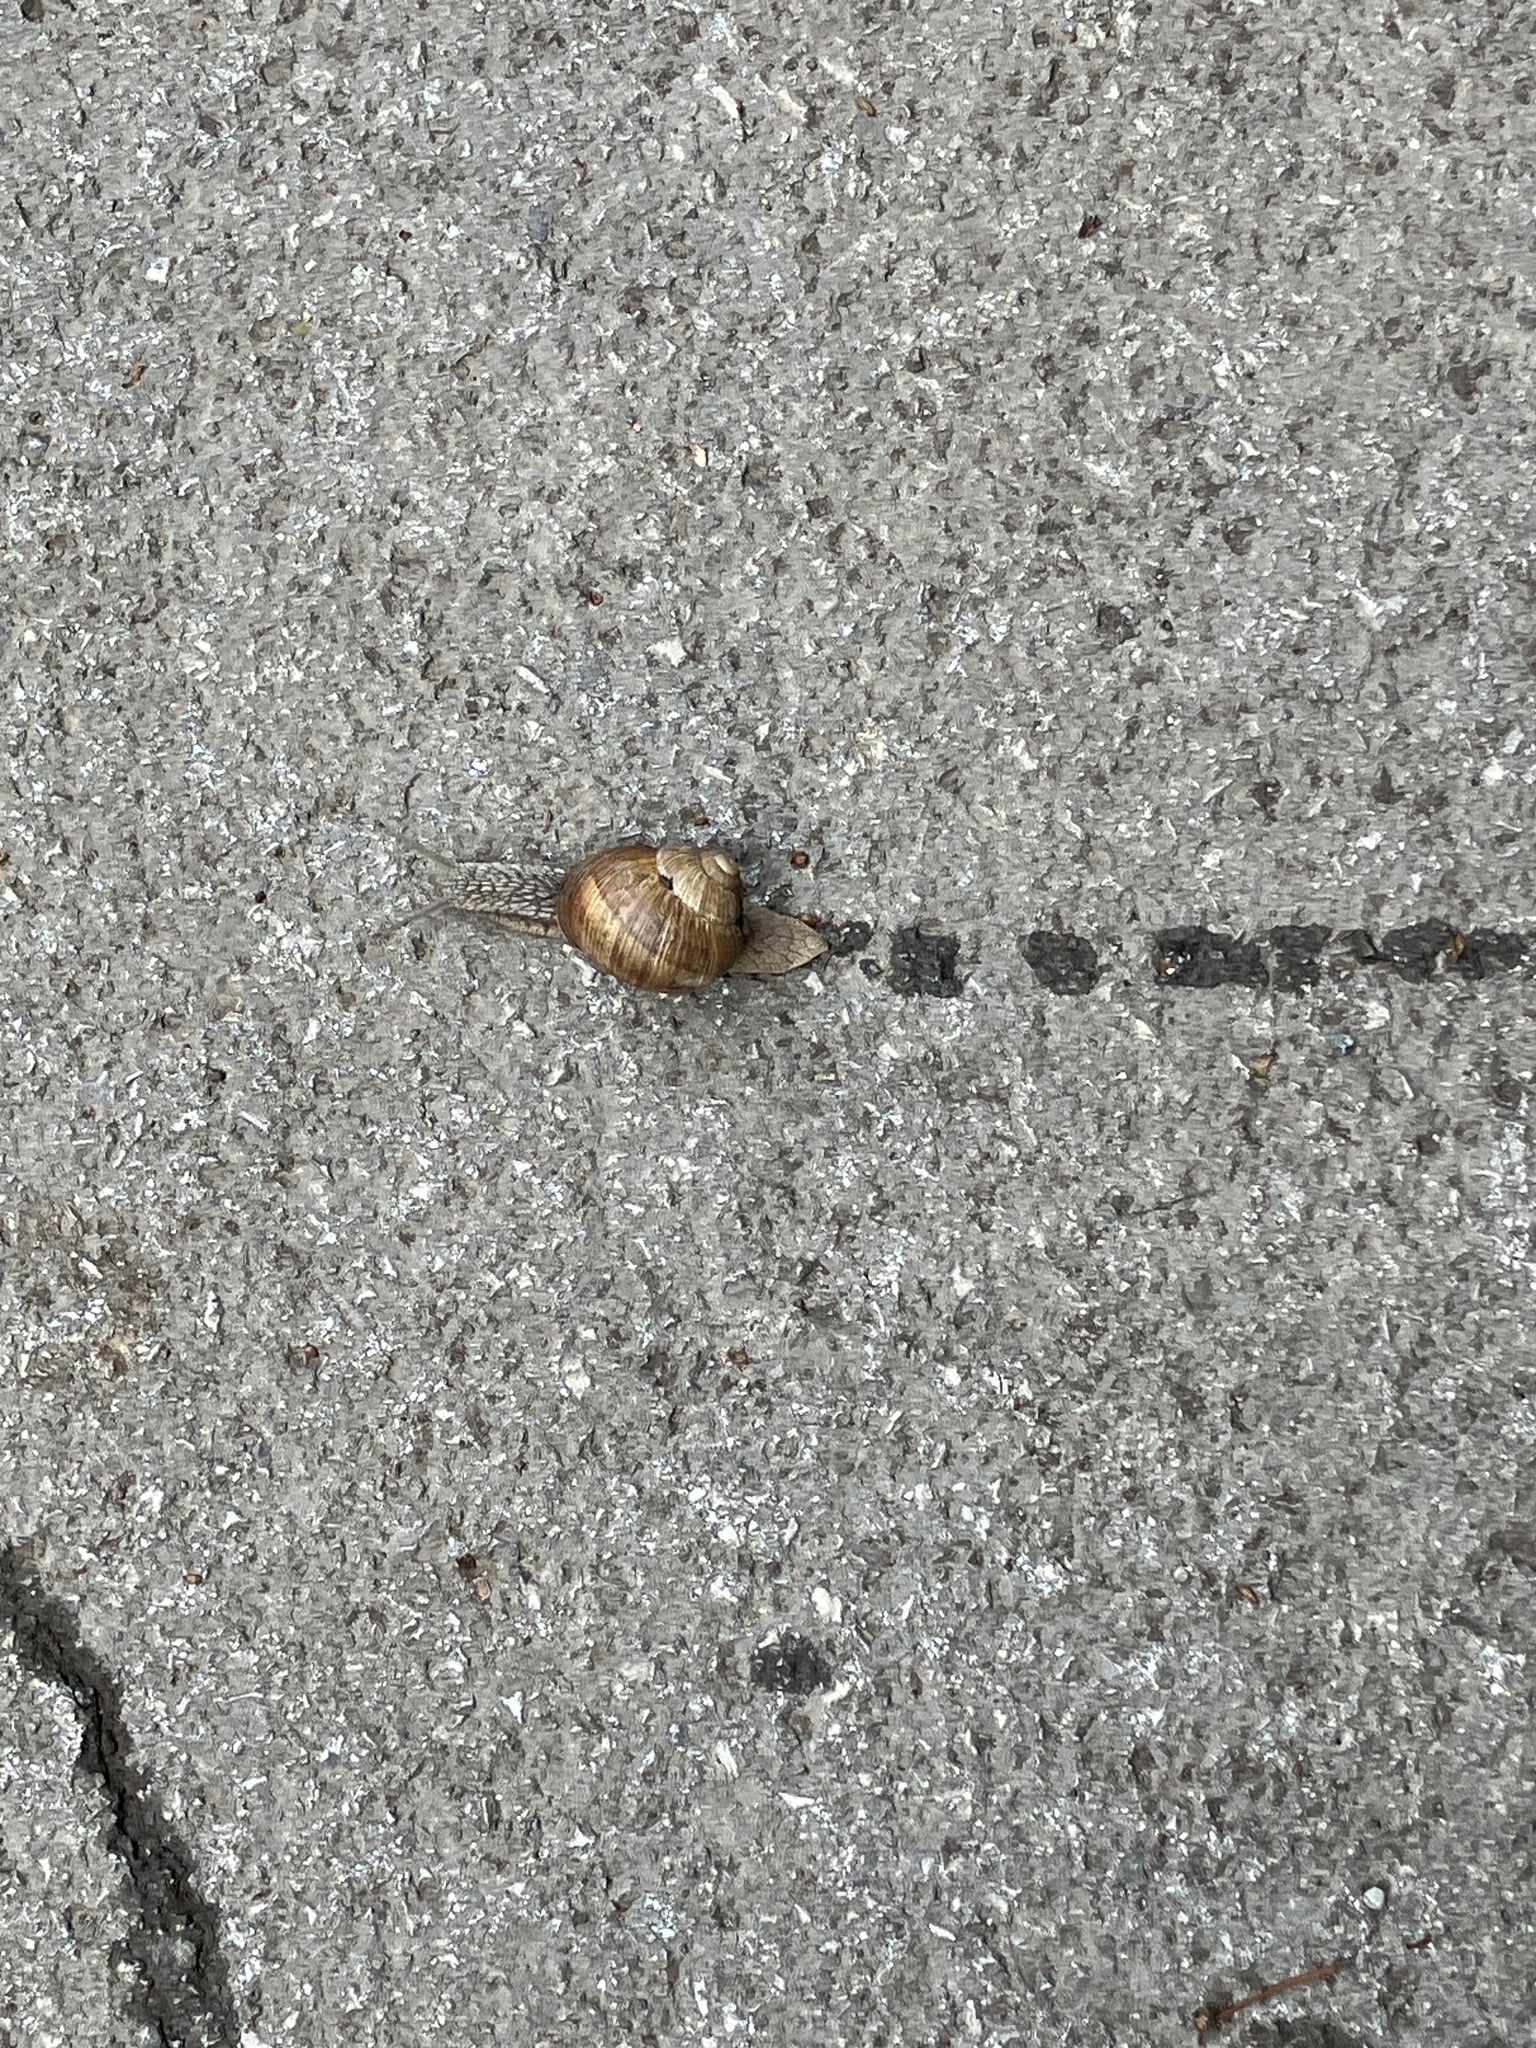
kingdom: Animalia
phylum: Mollusca
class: Gastropoda
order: Stylommatophora
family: Helicidae
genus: Helix
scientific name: Helix pomatia
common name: Roman snail
